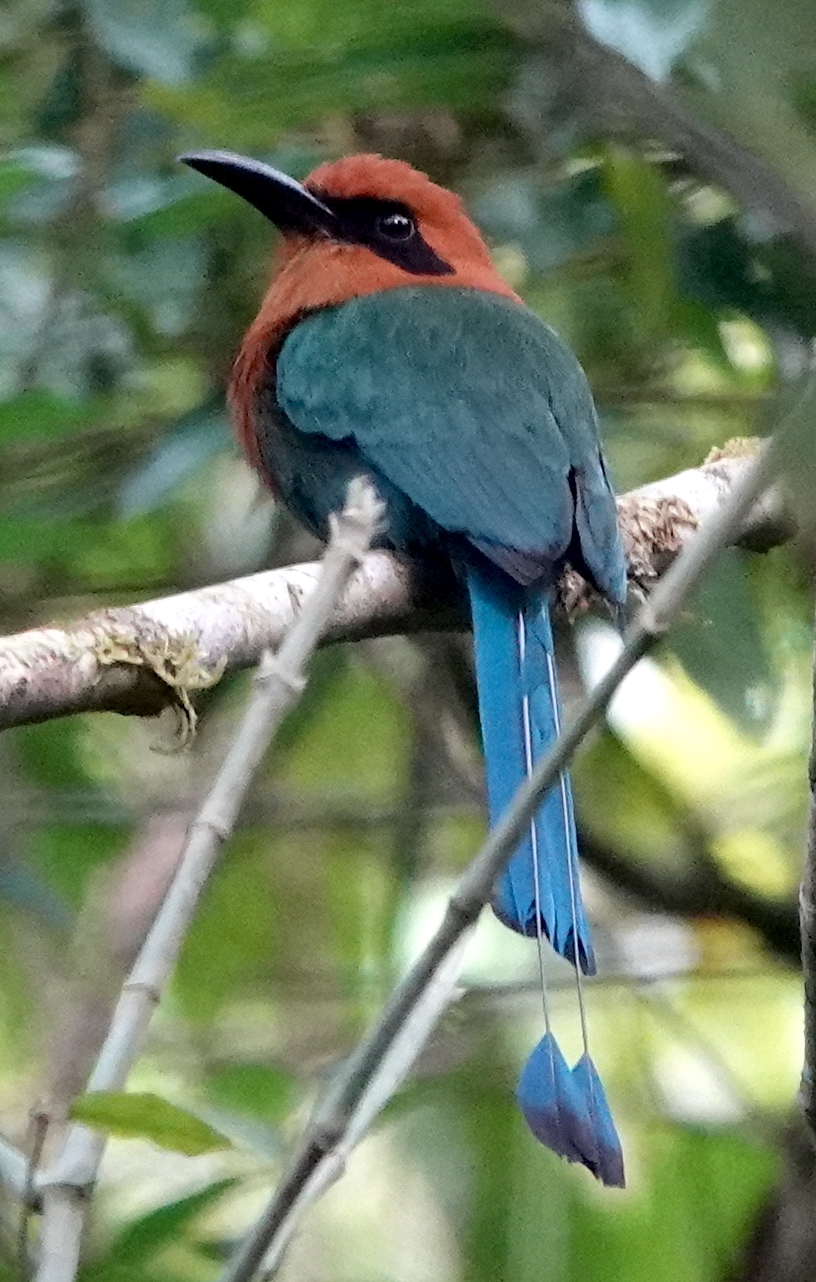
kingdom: Animalia
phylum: Chordata
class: Aves
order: Coraciiformes
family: Momotidae
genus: Electron
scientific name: Electron platyrhynchum
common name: Broad-billed motmot
